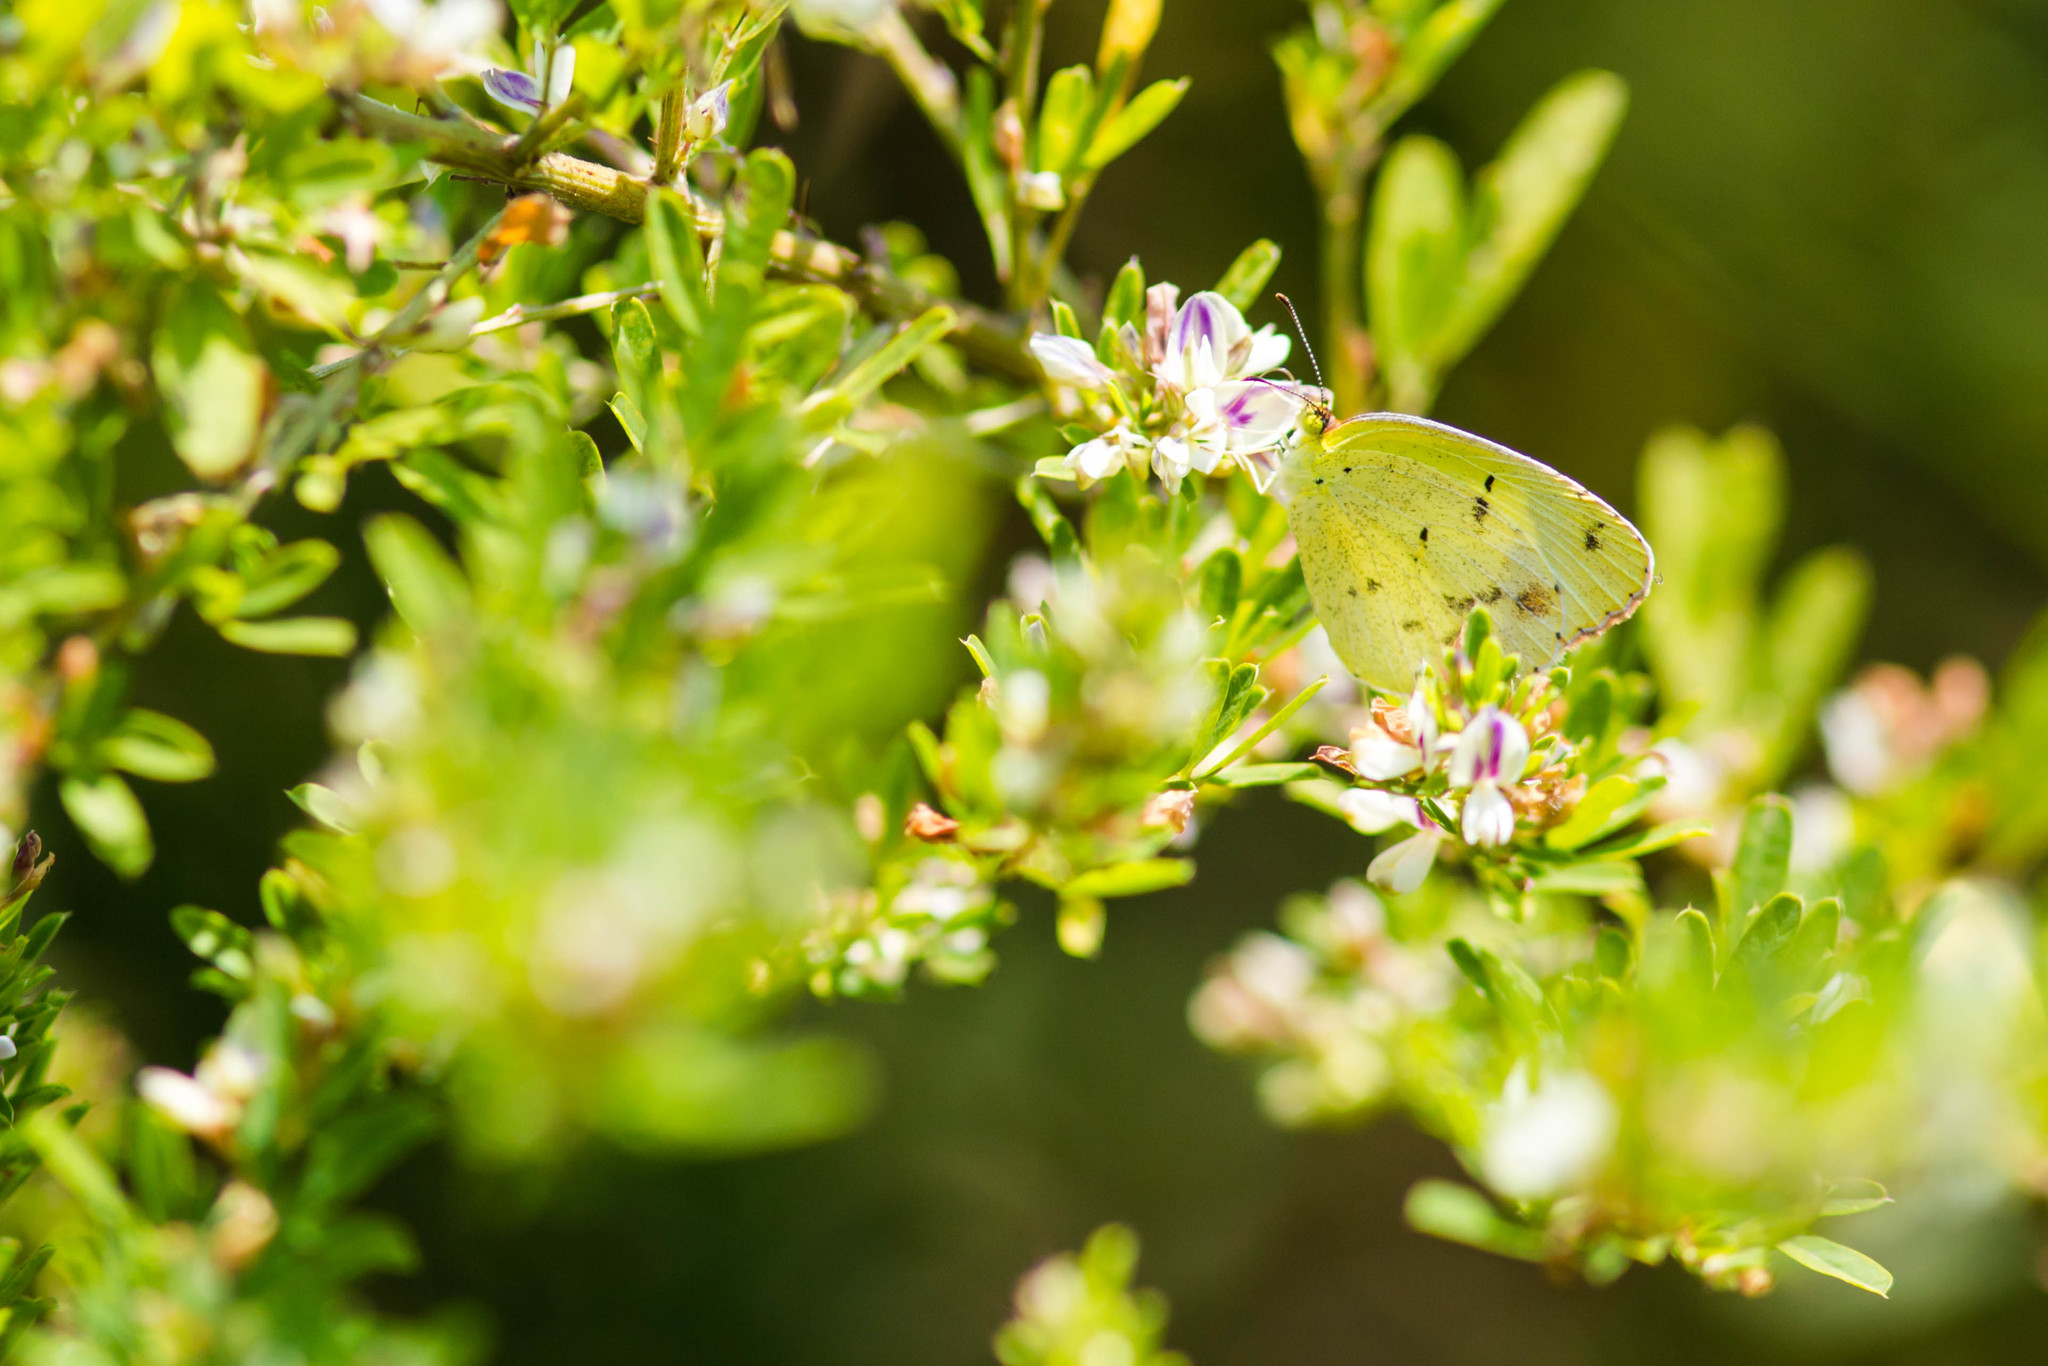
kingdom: Animalia
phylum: Arthropoda
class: Insecta
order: Lepidoptera
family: Pieridae
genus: Pyrisitia
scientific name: Pyrisitia lisa
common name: Little yellow
